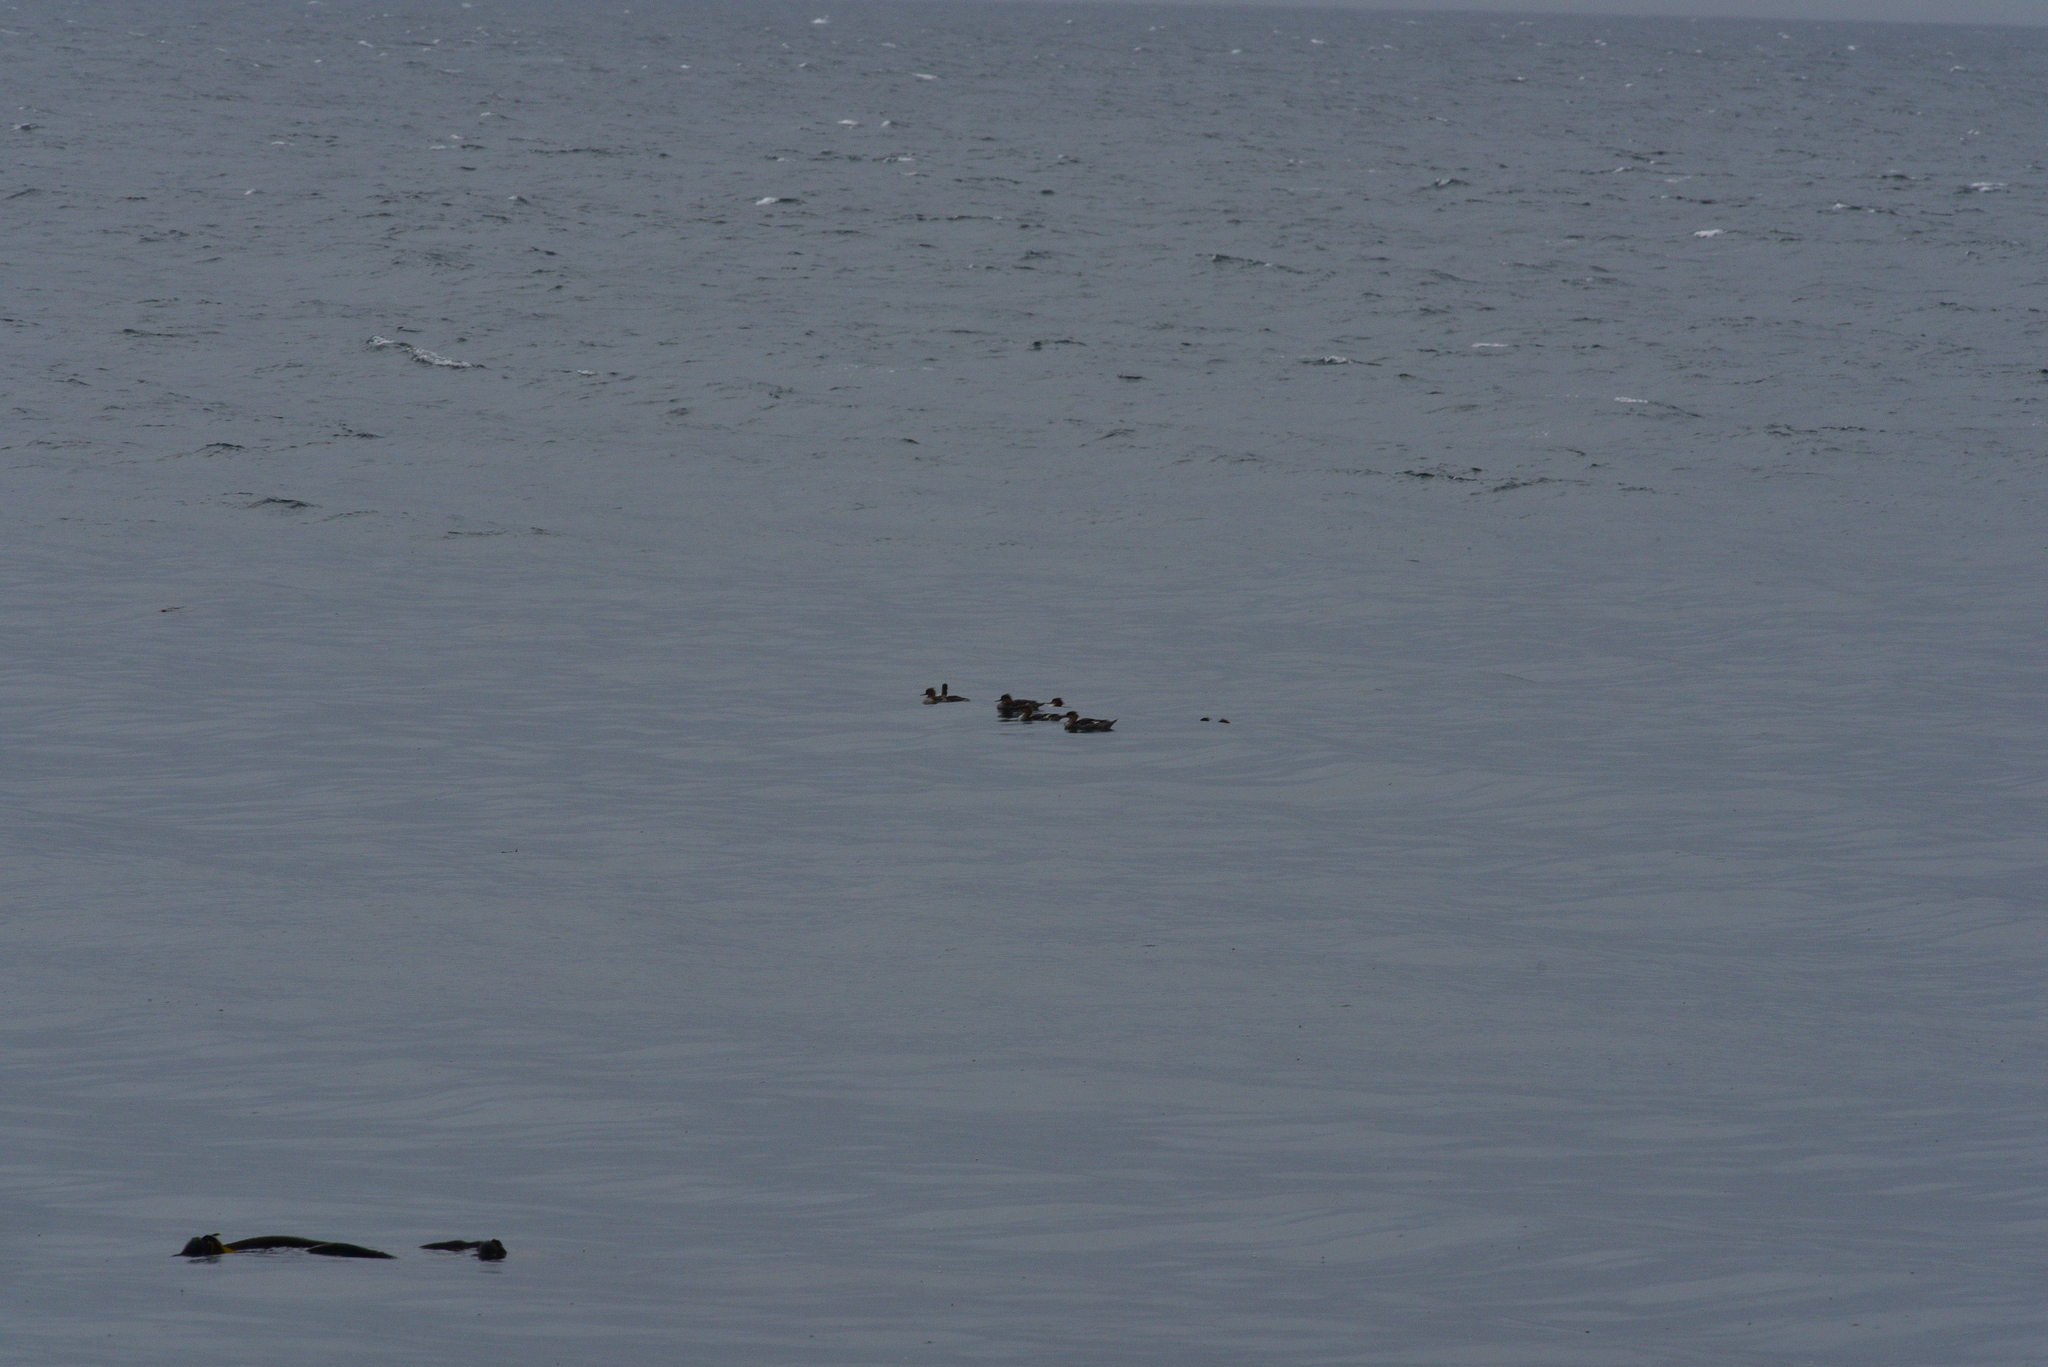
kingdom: Animalia
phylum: Chordata
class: Aves
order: Anseriformes
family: Anatidae
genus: Mergus
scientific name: Mergus serrator
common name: Red-breasted merganser
